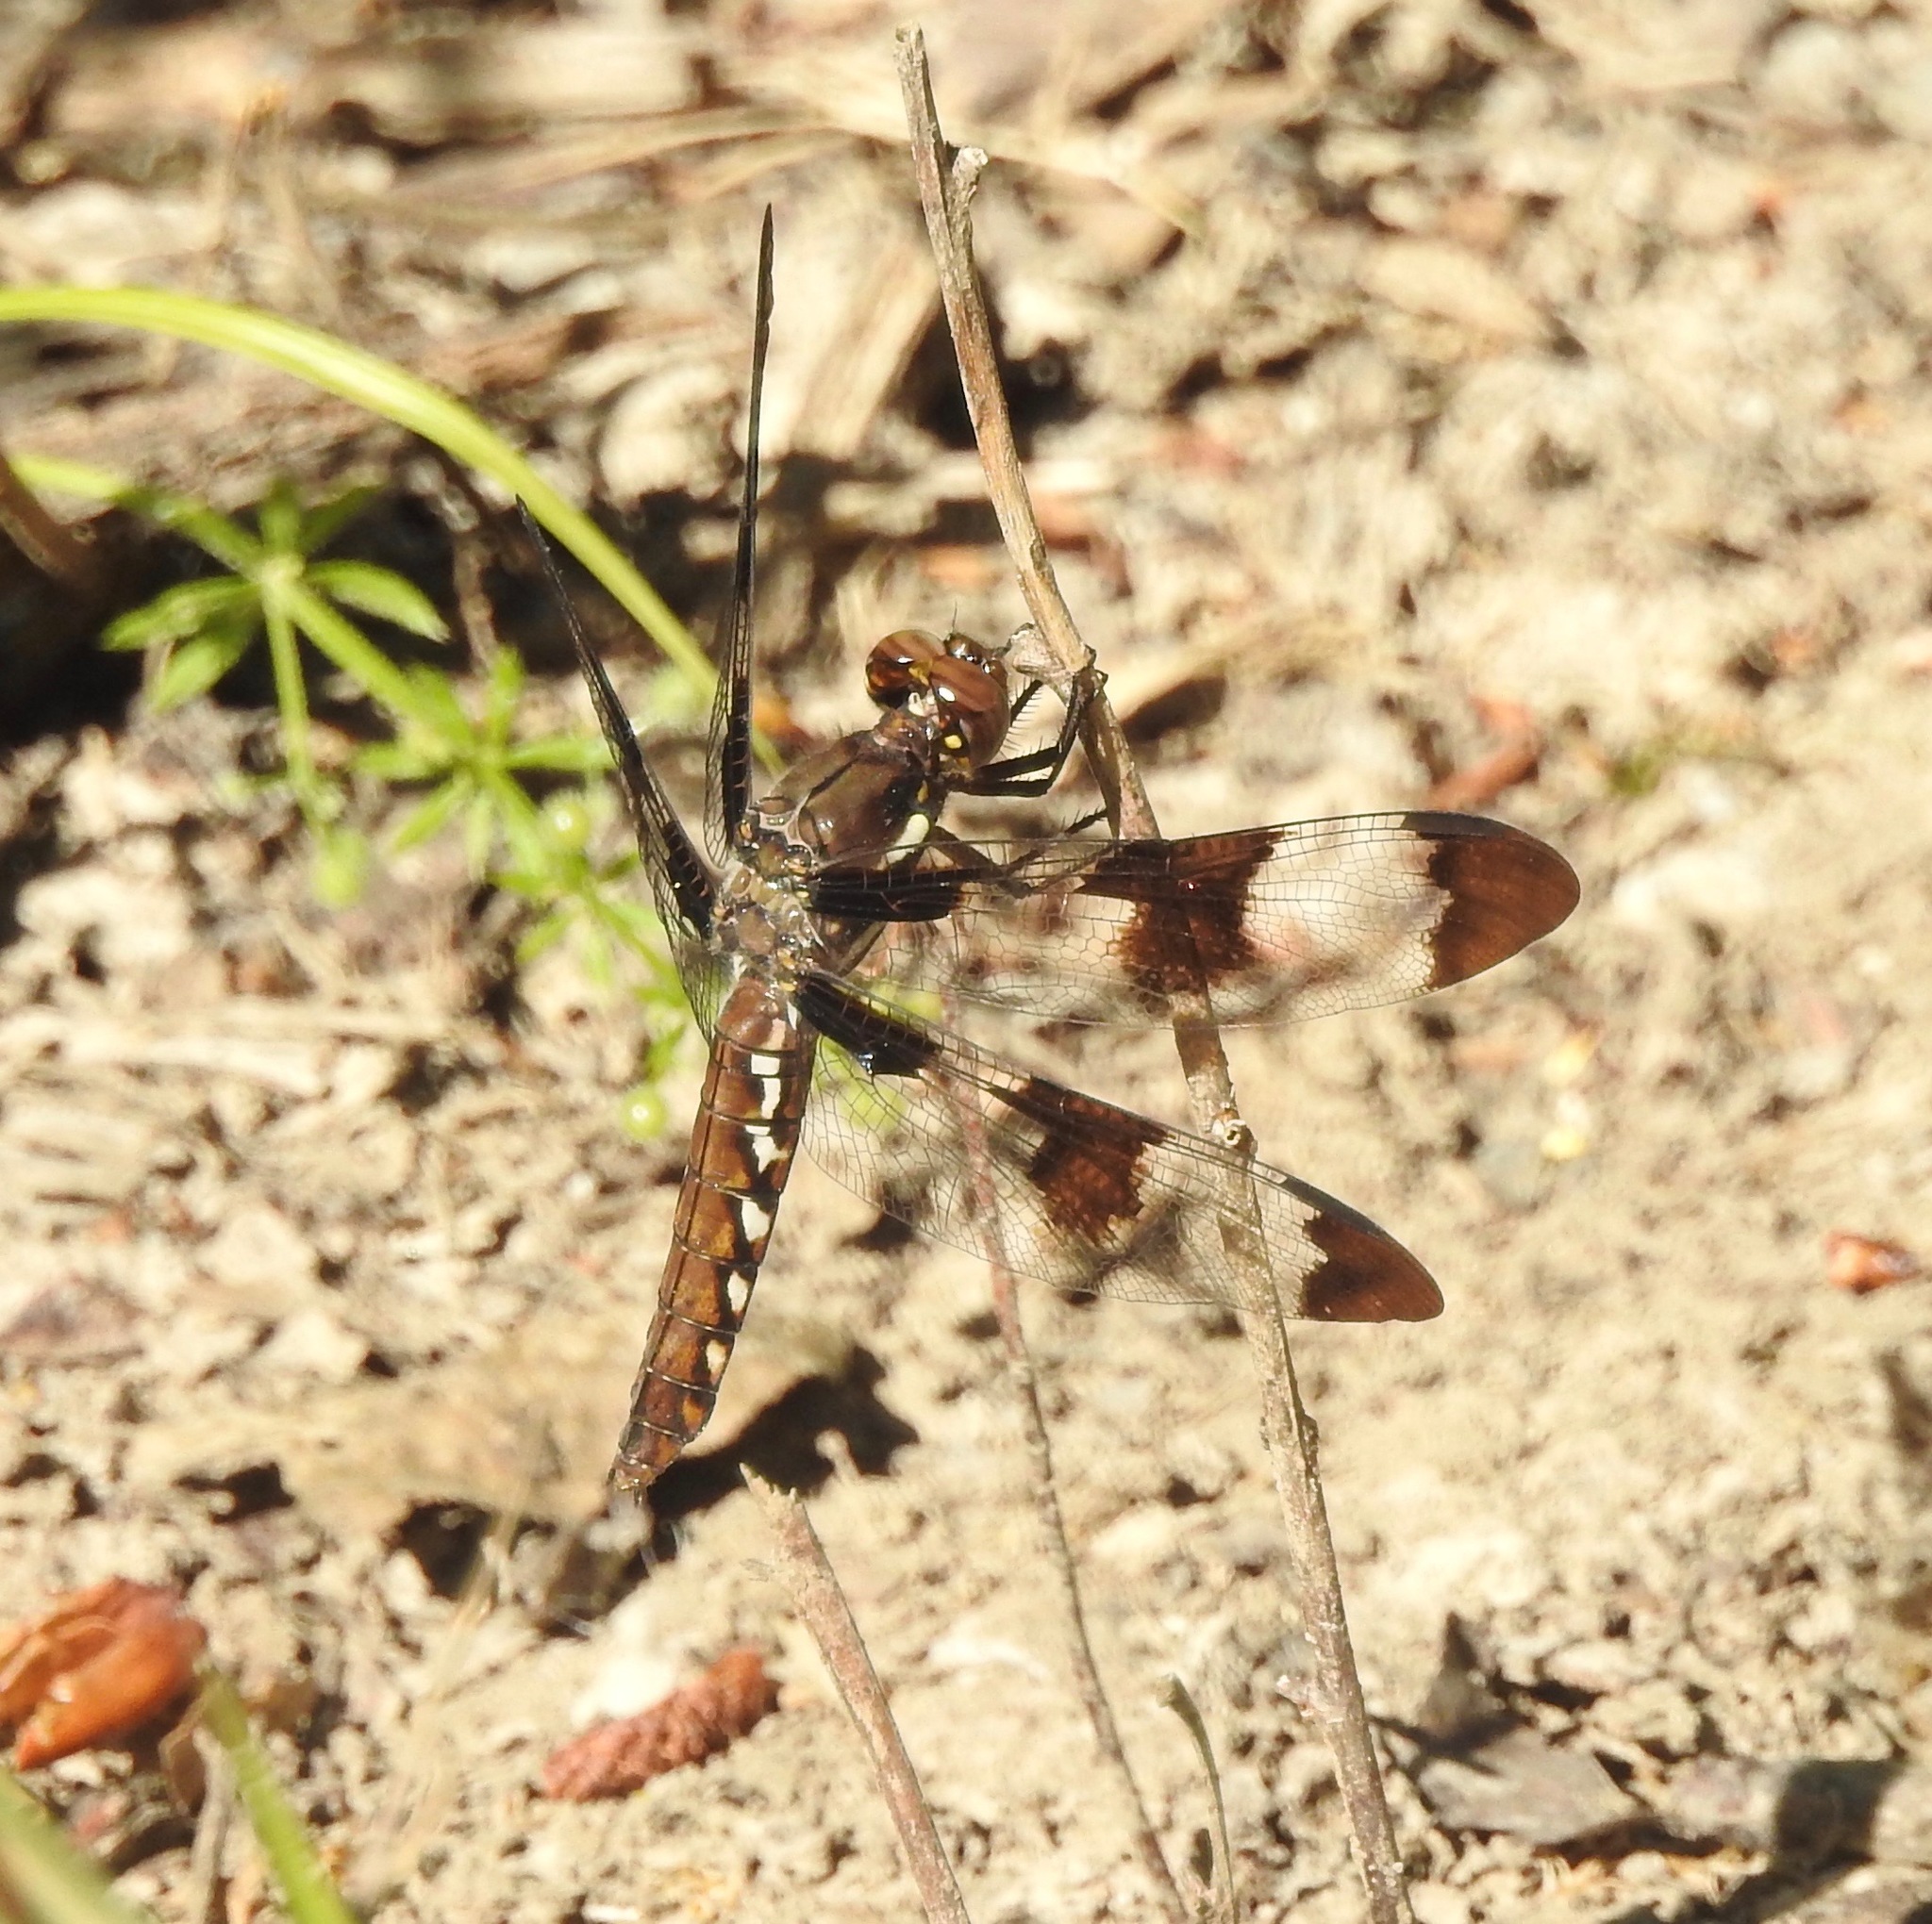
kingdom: Animalia
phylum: Arthropoda
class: Insecta
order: Odonata
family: Libellulidae
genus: Plathemis
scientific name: Plathemis lydia
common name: Common whitetail
